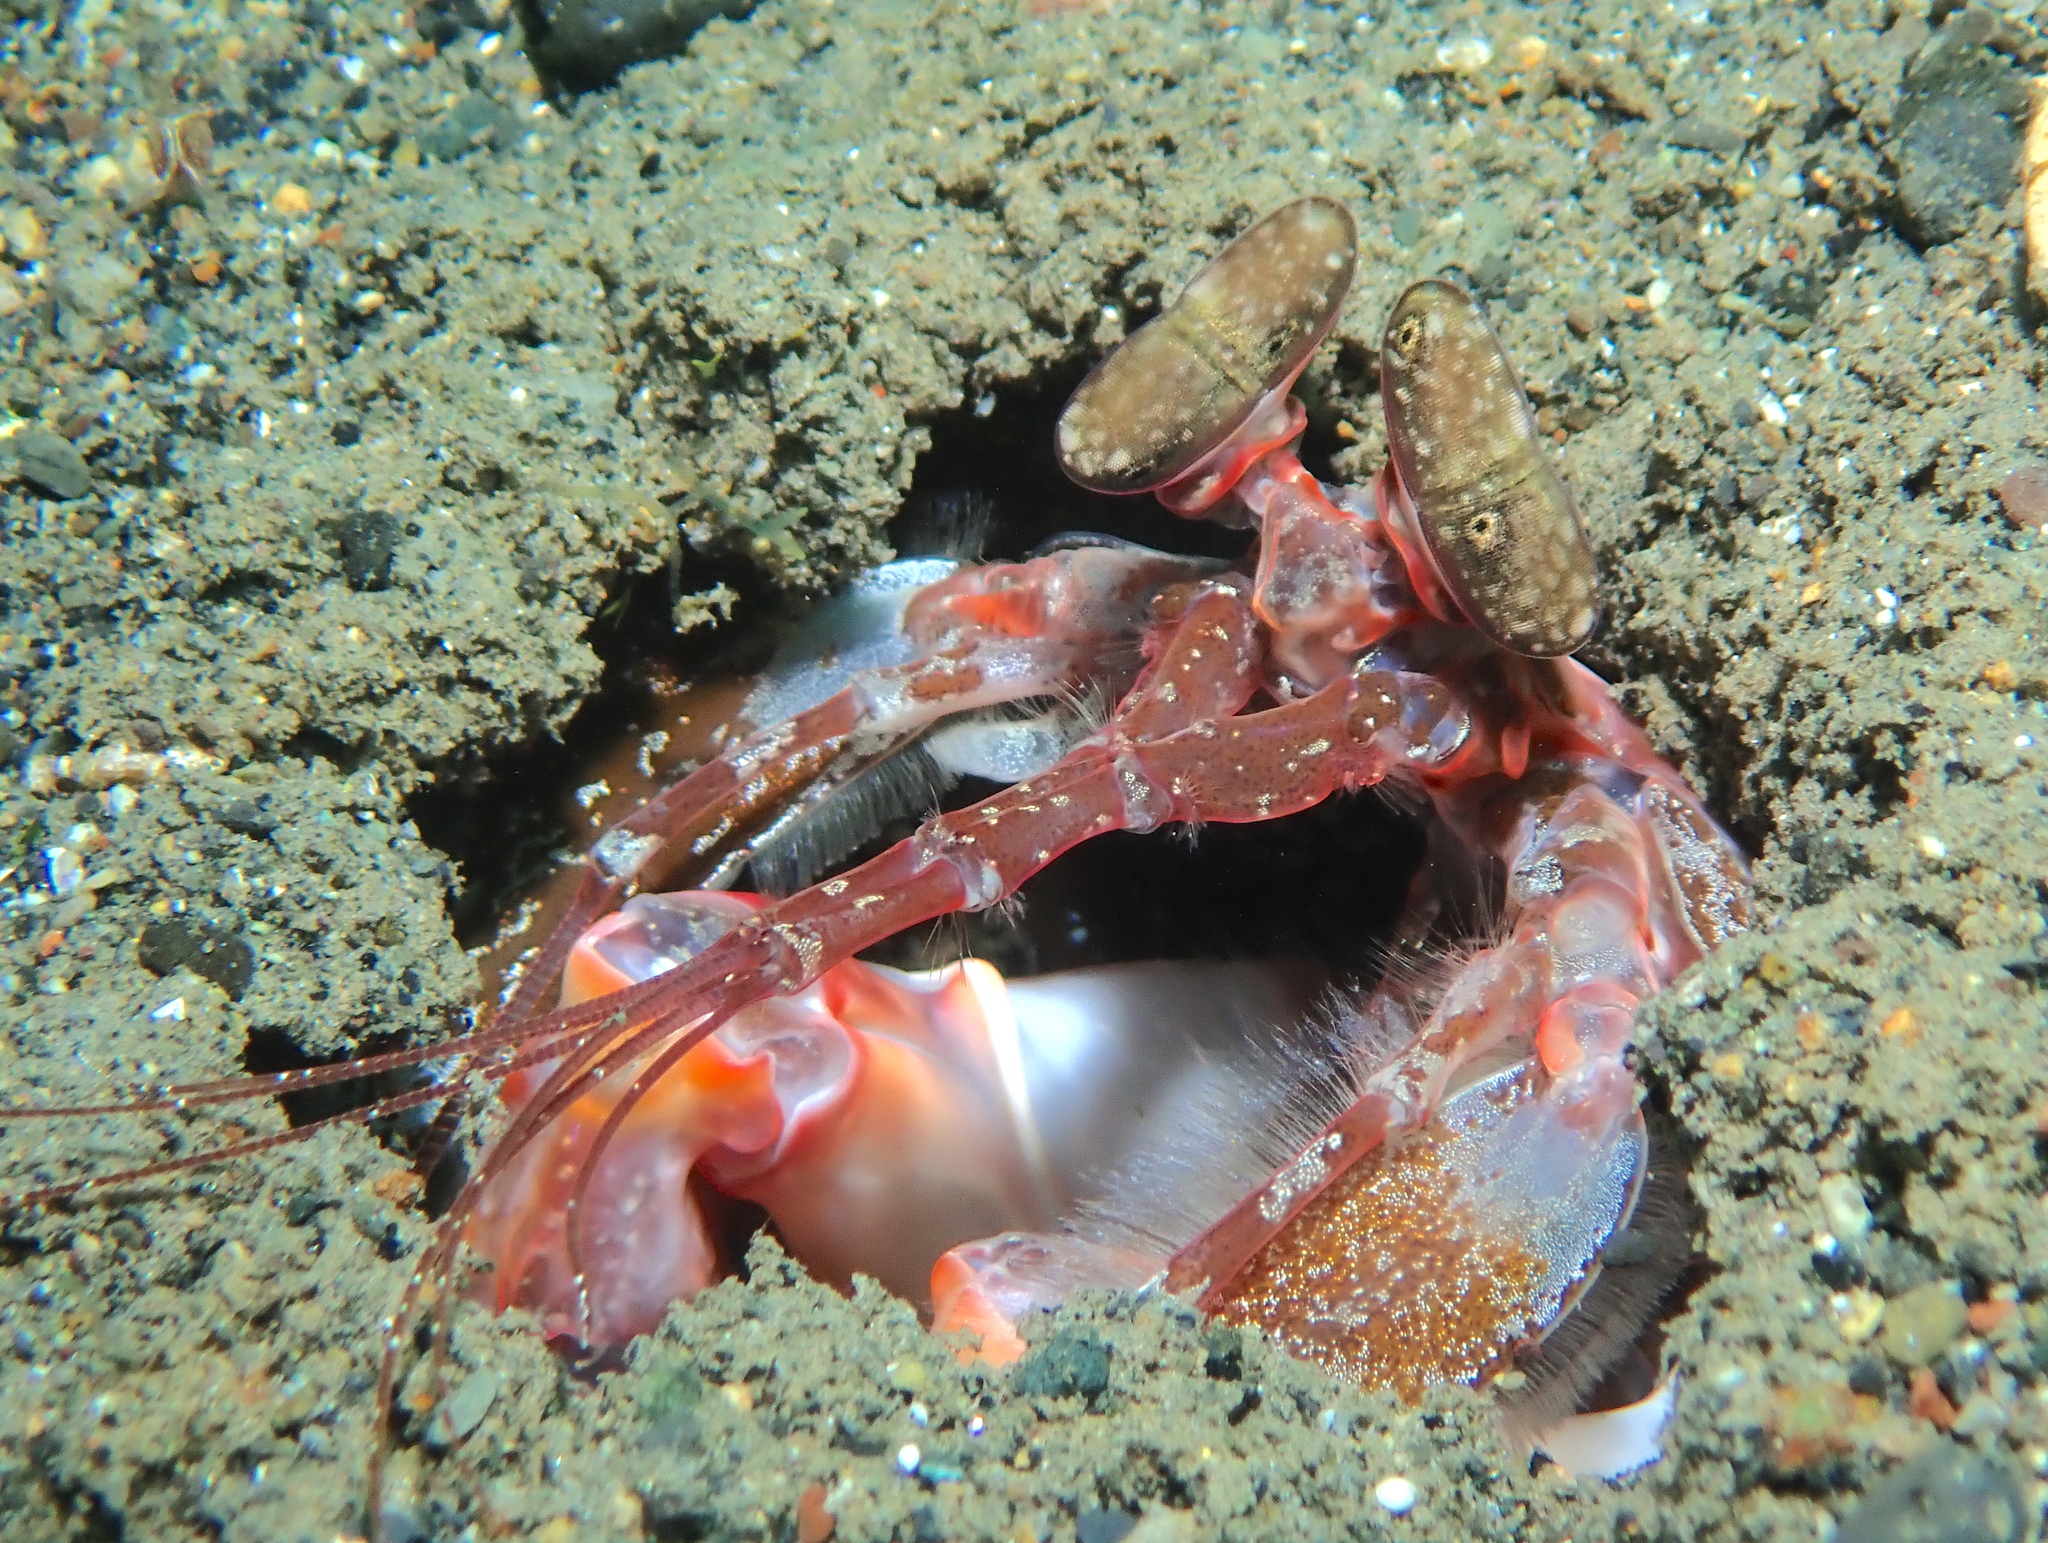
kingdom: Animalia
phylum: Arthropoda
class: Malacostraca
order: Stomatopoda
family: Lysiosquillidae
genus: Lysiosquilla
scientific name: Lysiosquilla lisa
